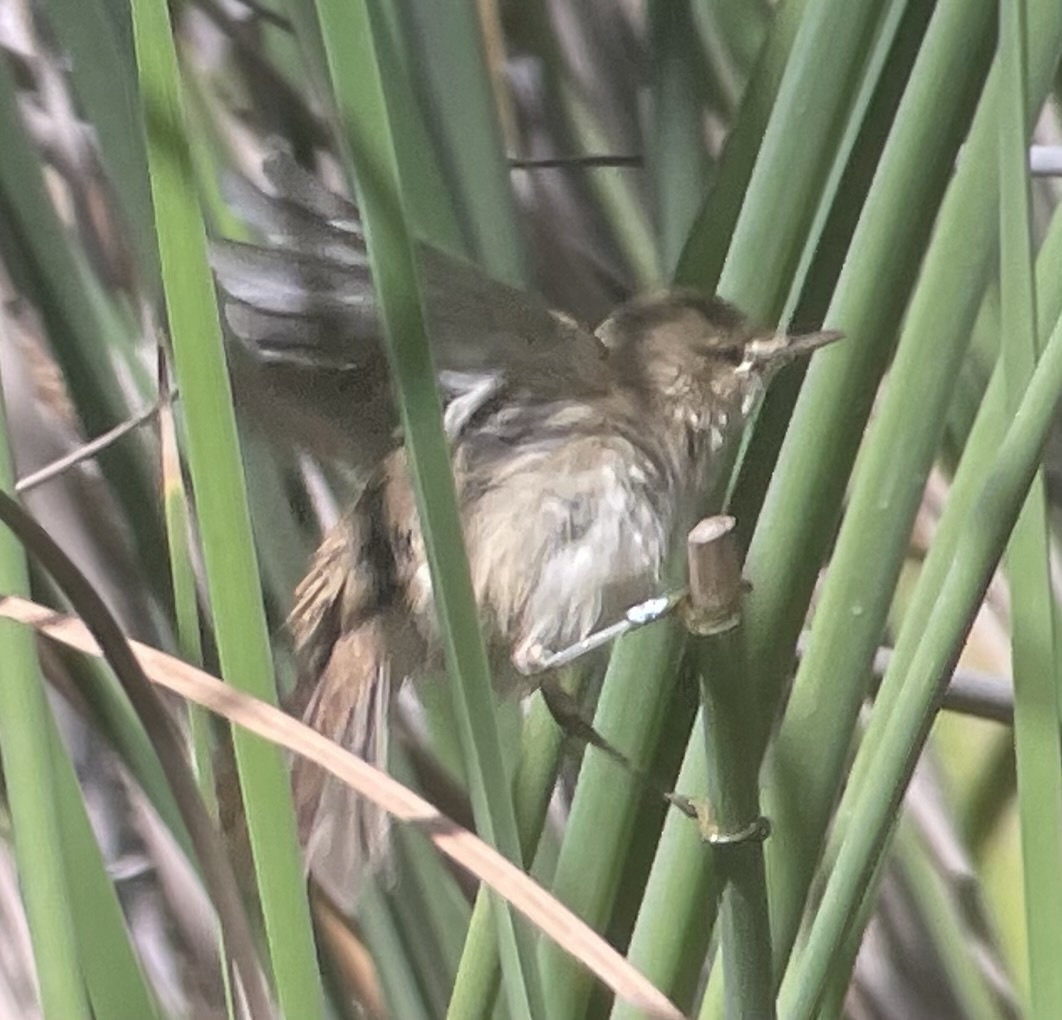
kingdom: Animalia
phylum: Chordata
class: Aves
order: Passeriformes
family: Acrocephalidae
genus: Acrocephalus
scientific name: Acrocephalus scirpaceus
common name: Eurasian reed warbler
